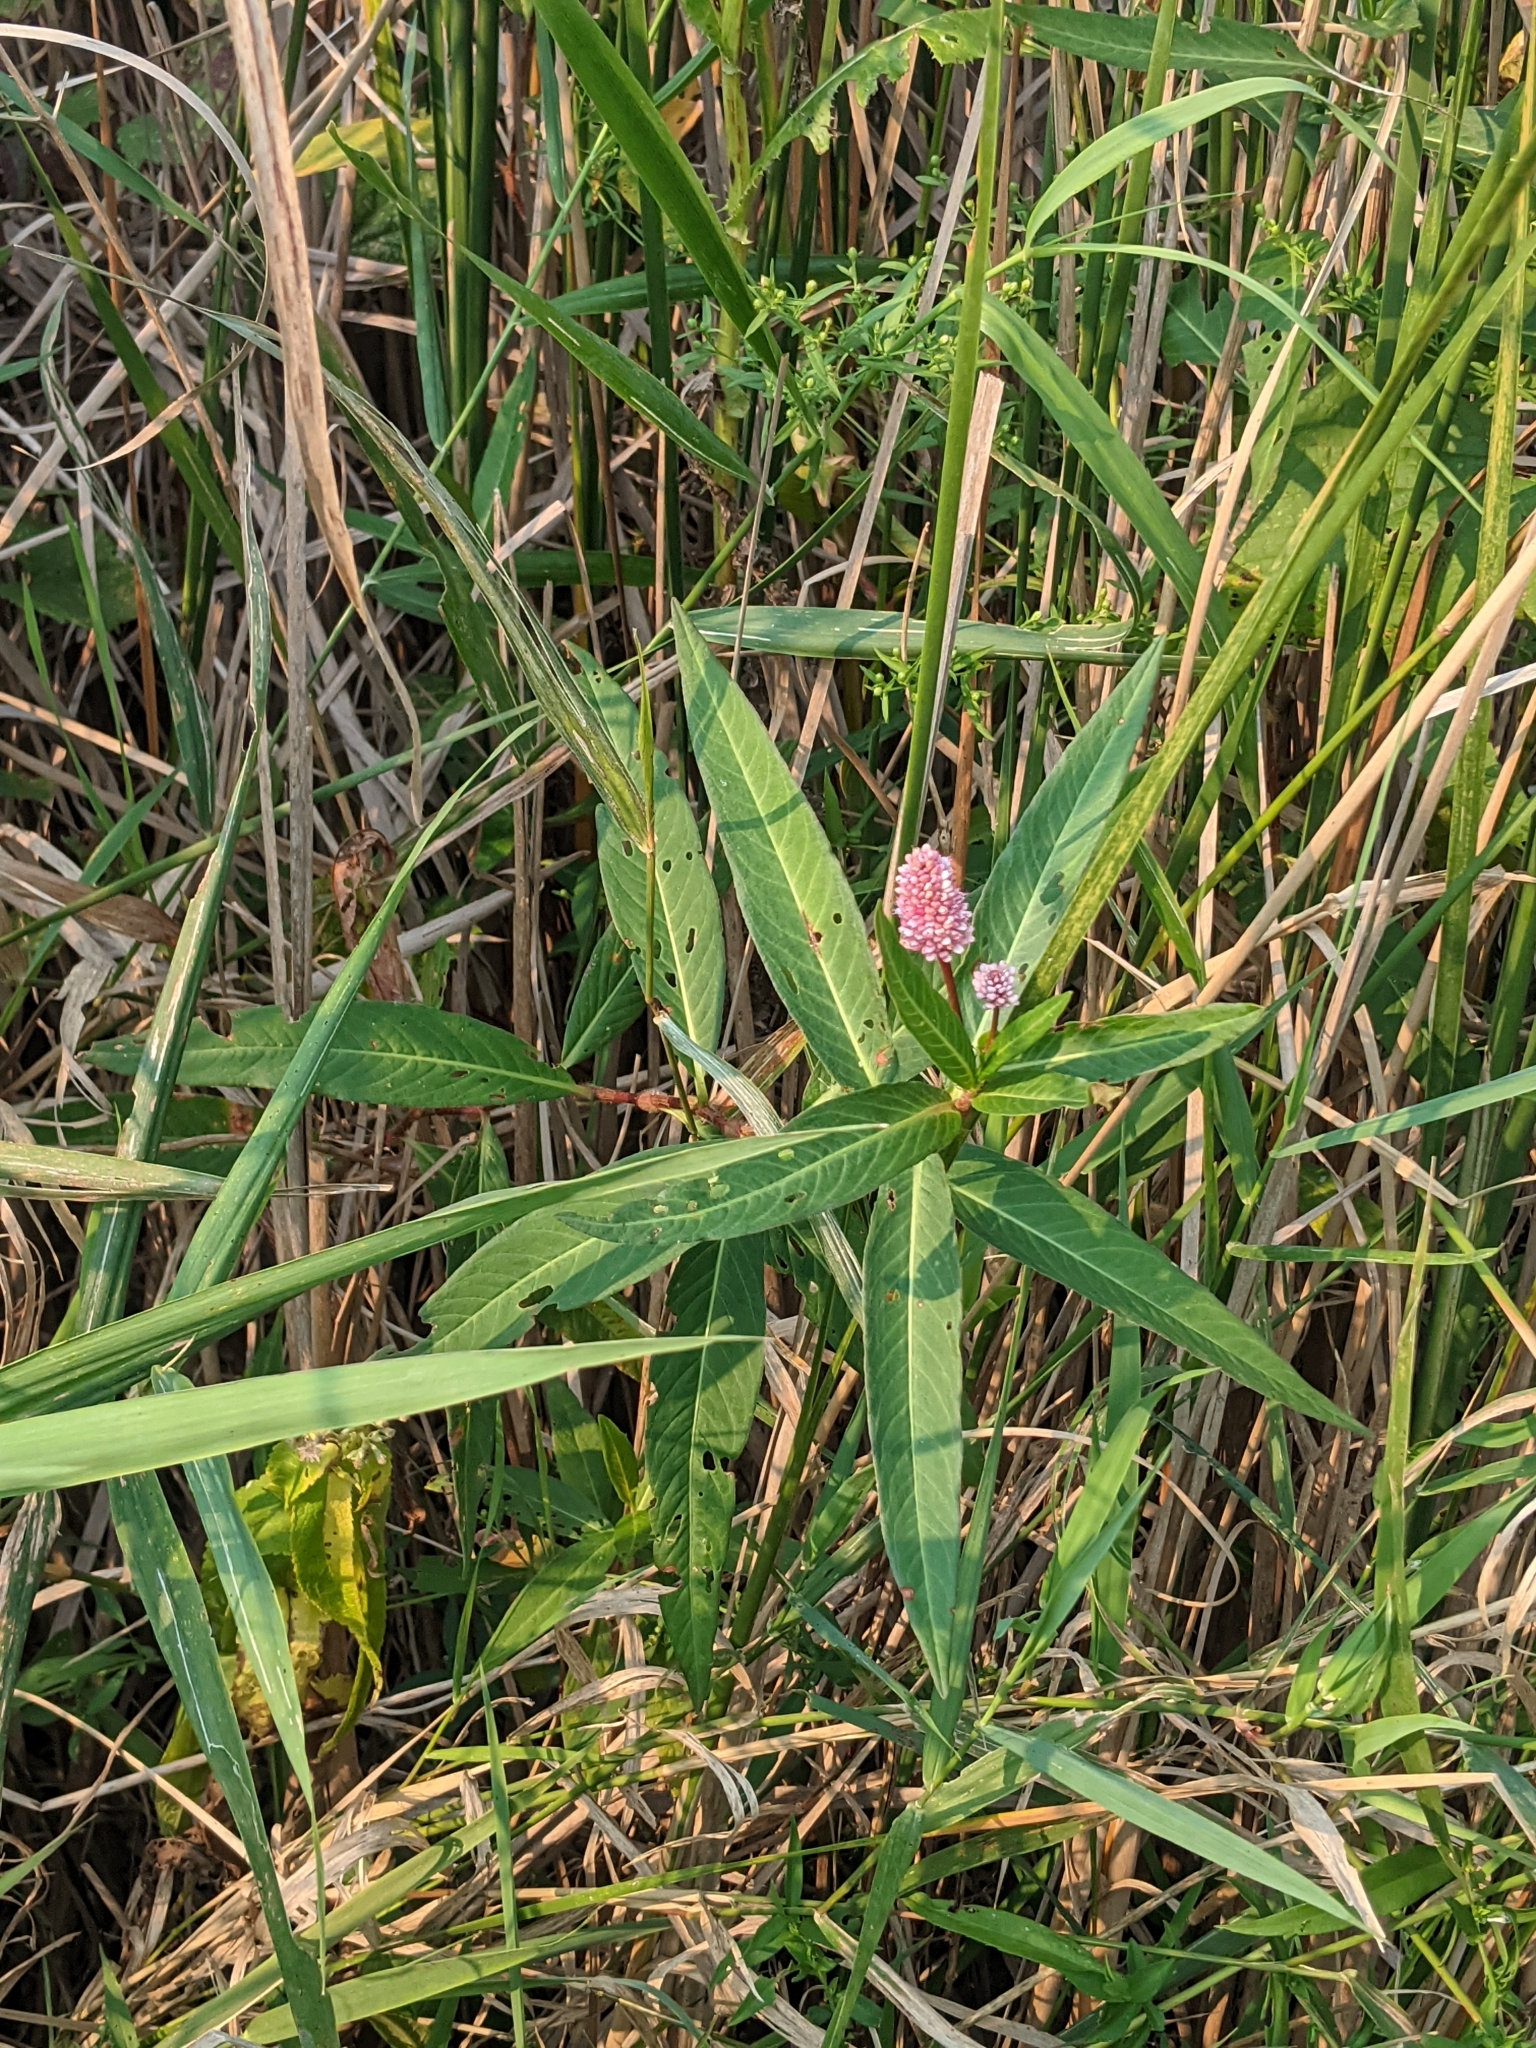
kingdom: Plantae
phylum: Tracheophyta
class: Magnoliopsida
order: Caryophyllales
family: Polygonaceae
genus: Persicaria
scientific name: Persicaria amphibia
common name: Amphibious bistort
